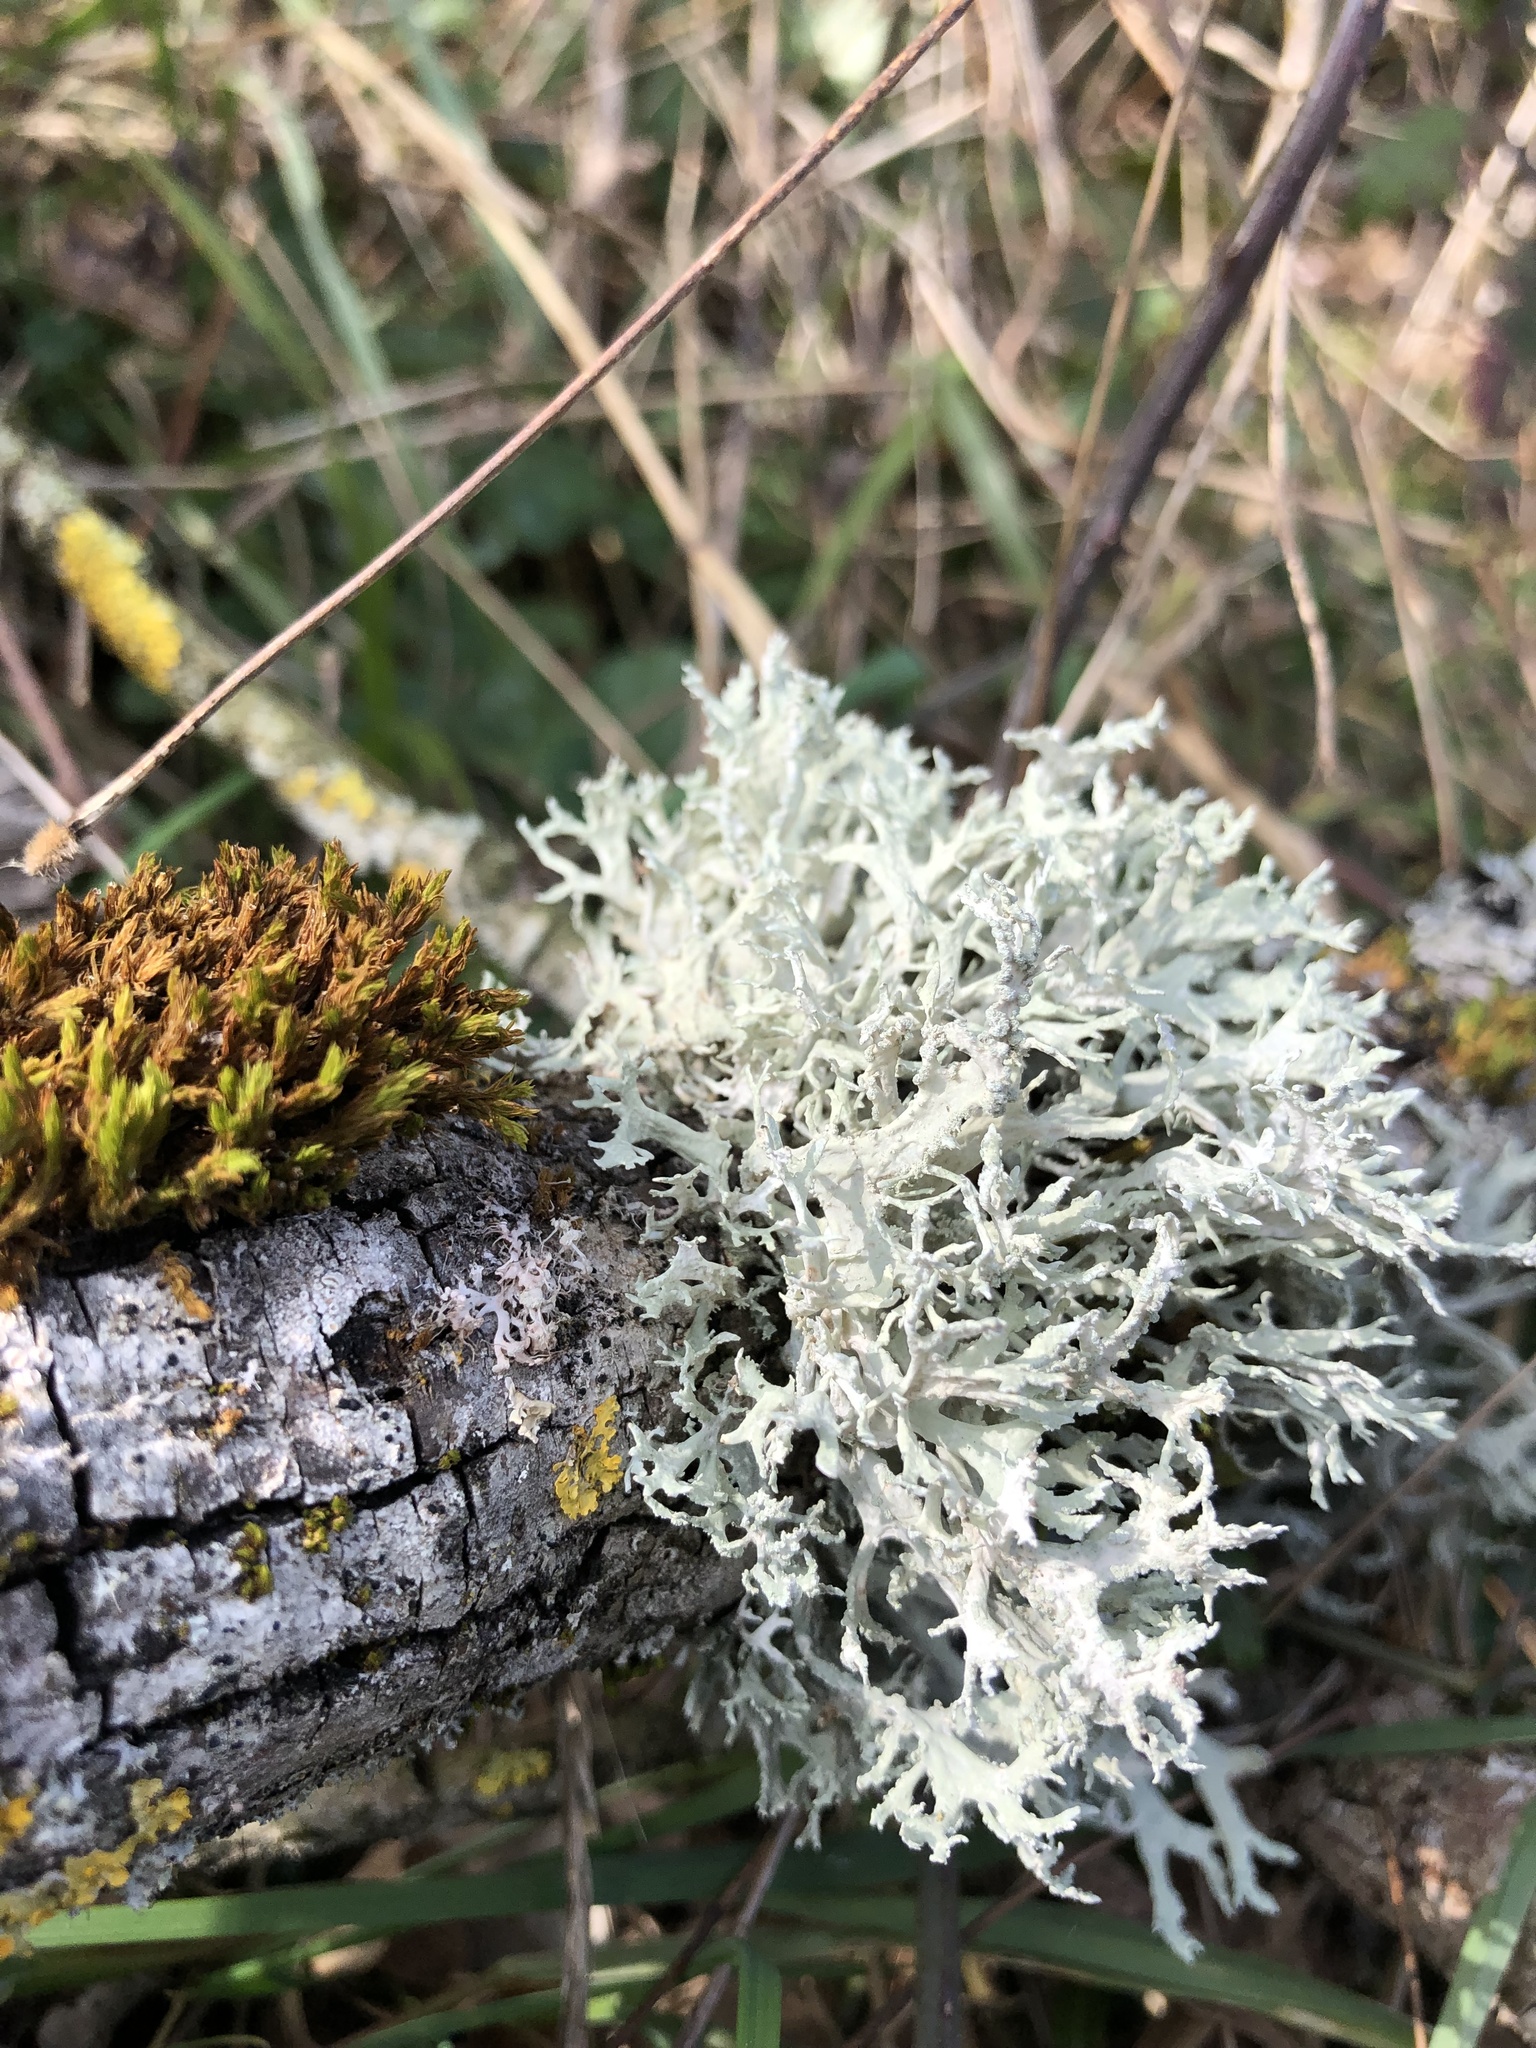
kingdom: Fungi
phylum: Ascomycota
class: Lecanoromycetes
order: Lecanorales
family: Parmeliaceae
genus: Evernia
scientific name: Evernia prunastri
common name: Oak moss
